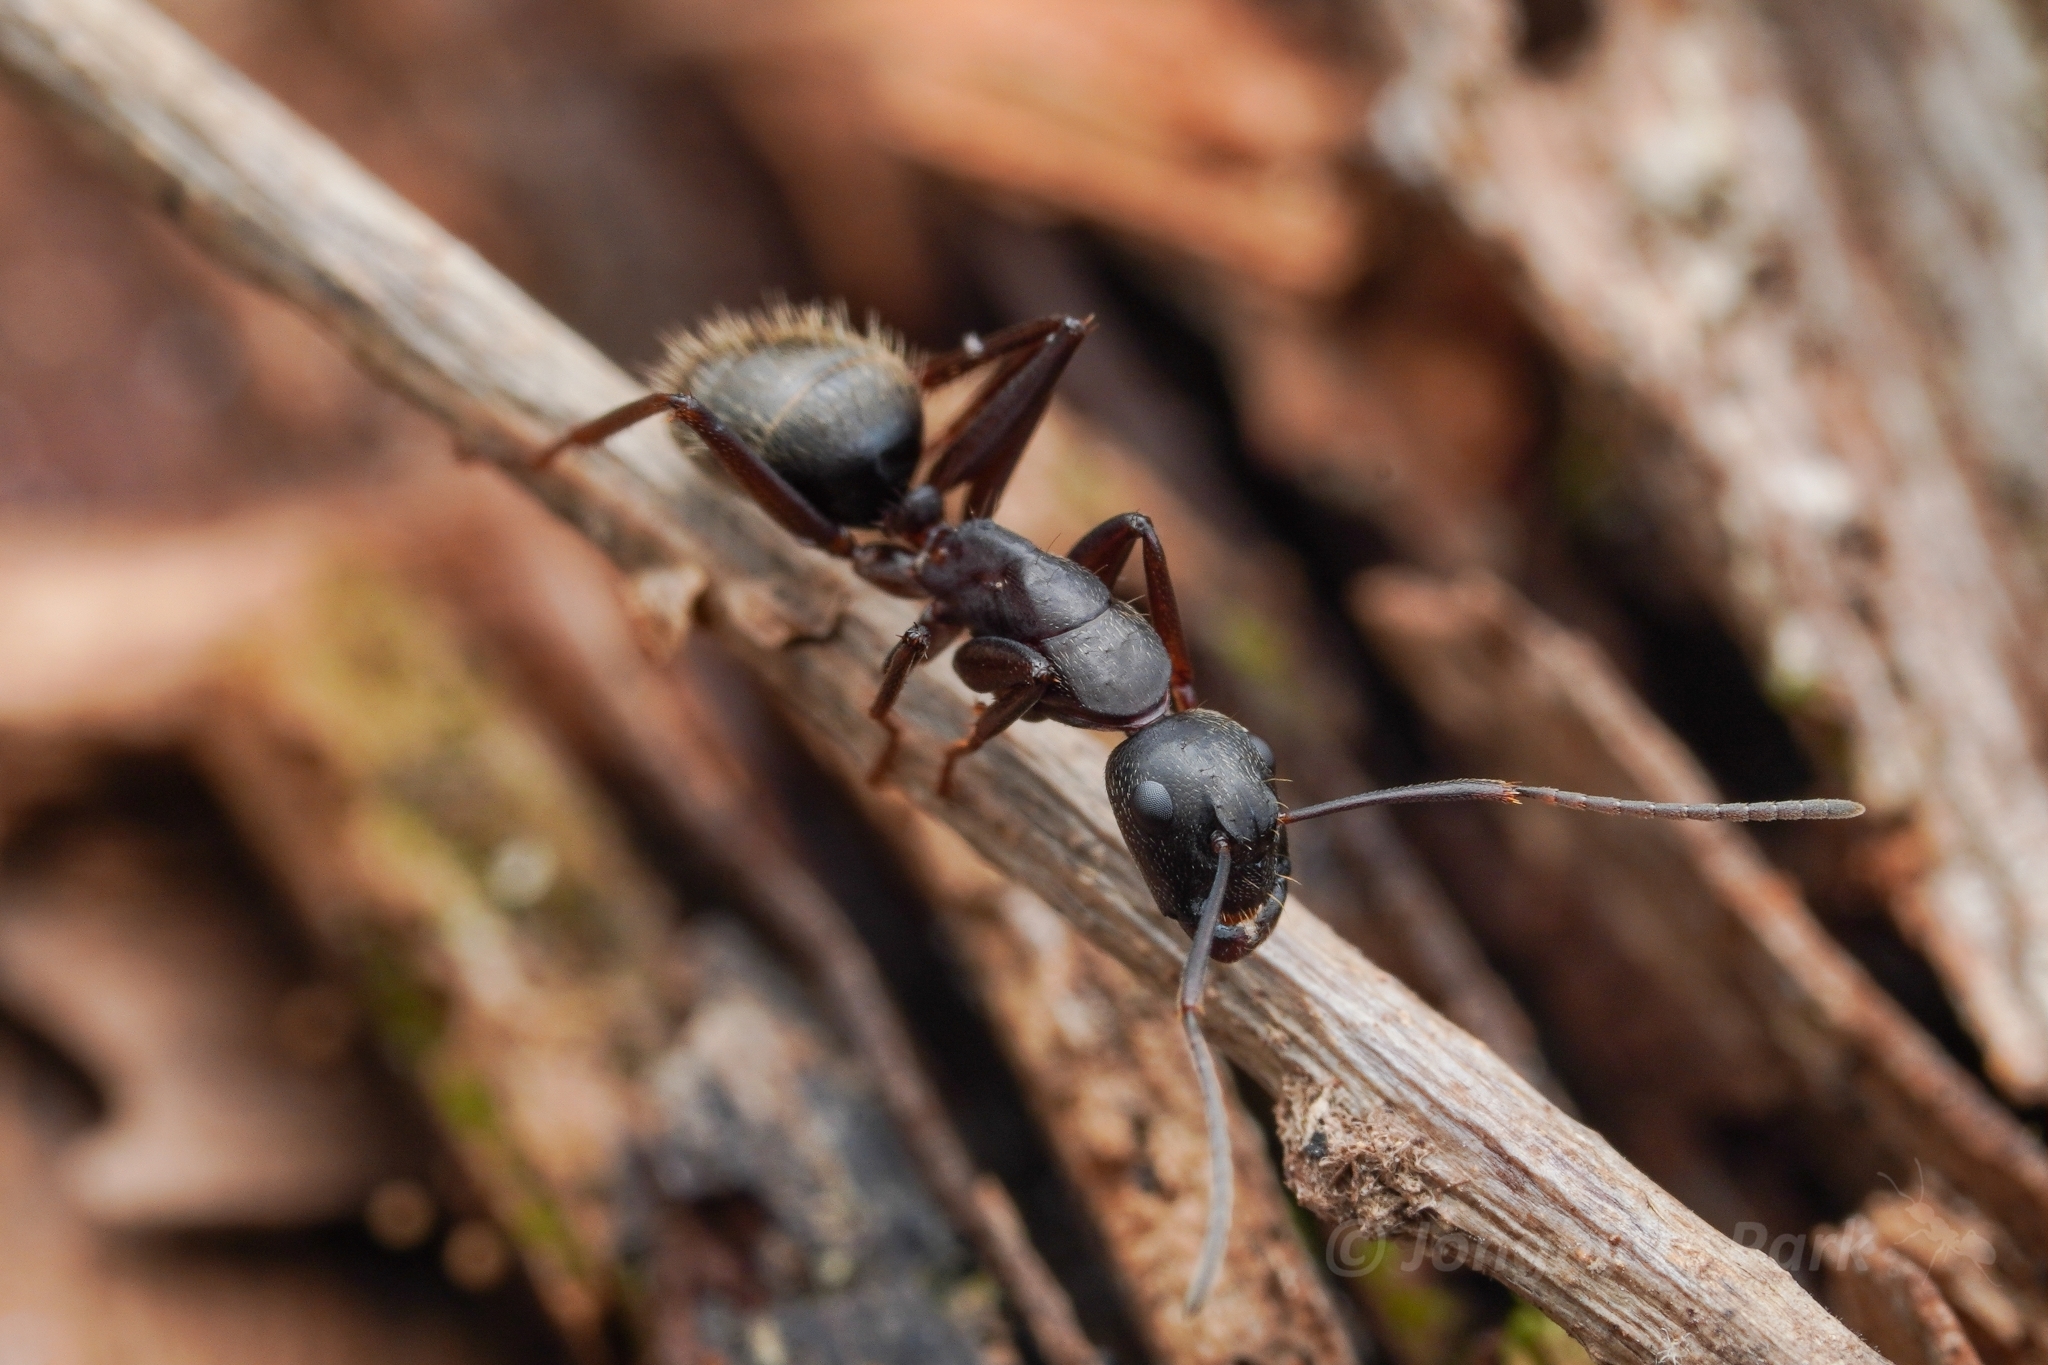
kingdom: Animalia
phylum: Arthropoda
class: Insecta
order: Hymenoptera
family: Formicidae
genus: Camponotus
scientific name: Camponotus chromaiodes
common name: Red carpenter ant
